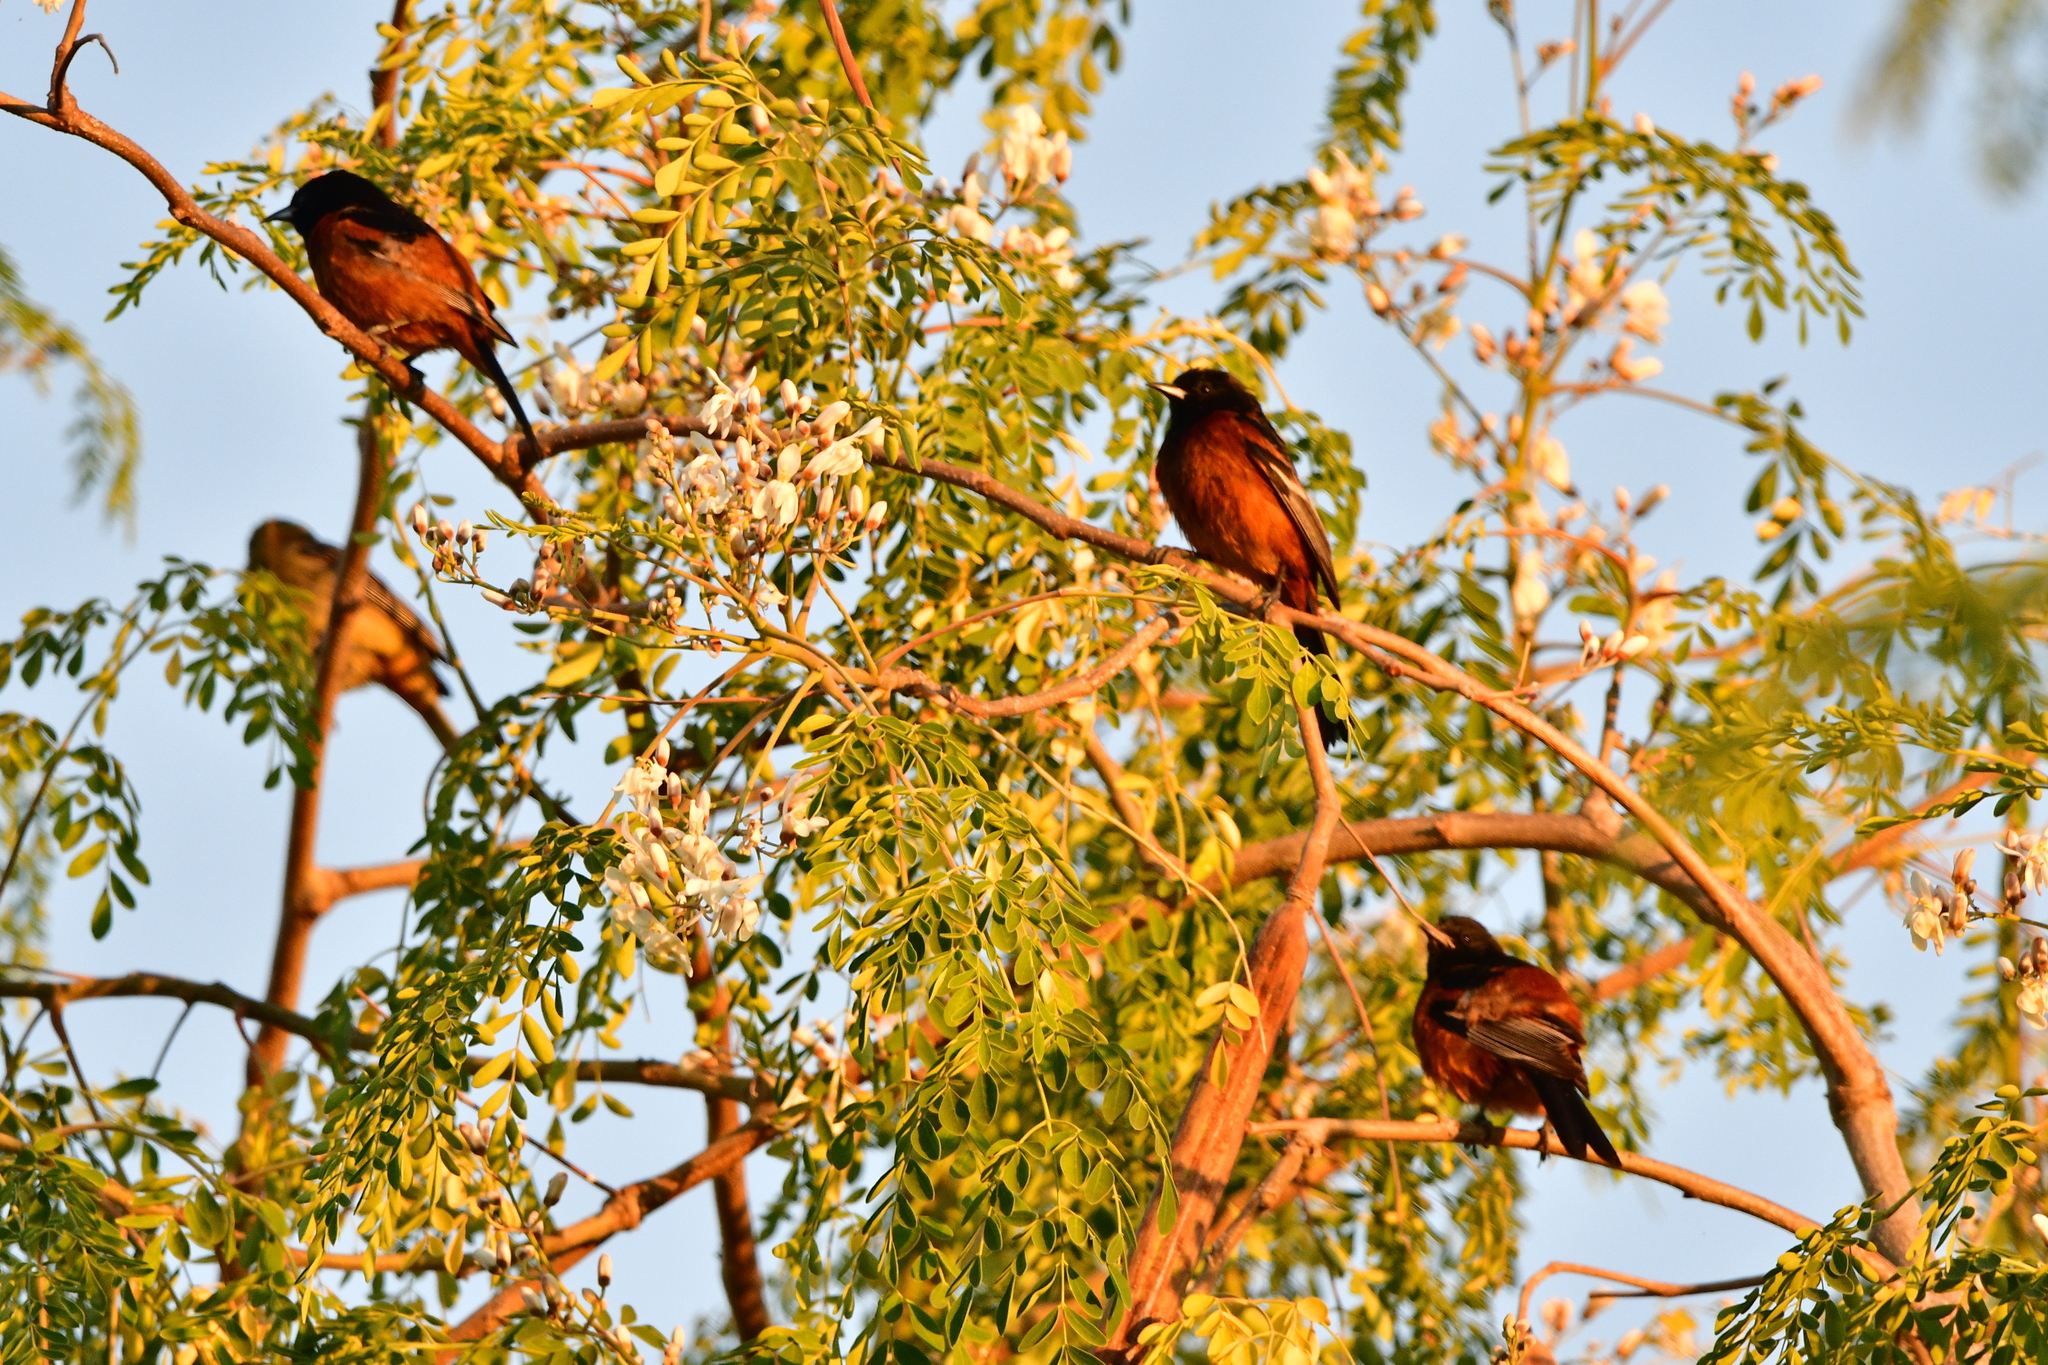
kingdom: Animalia
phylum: Chordata
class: Aves
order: Passeriformes
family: Icteridae
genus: Icterus
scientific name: Icterus spurius
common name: Orchard oriole
